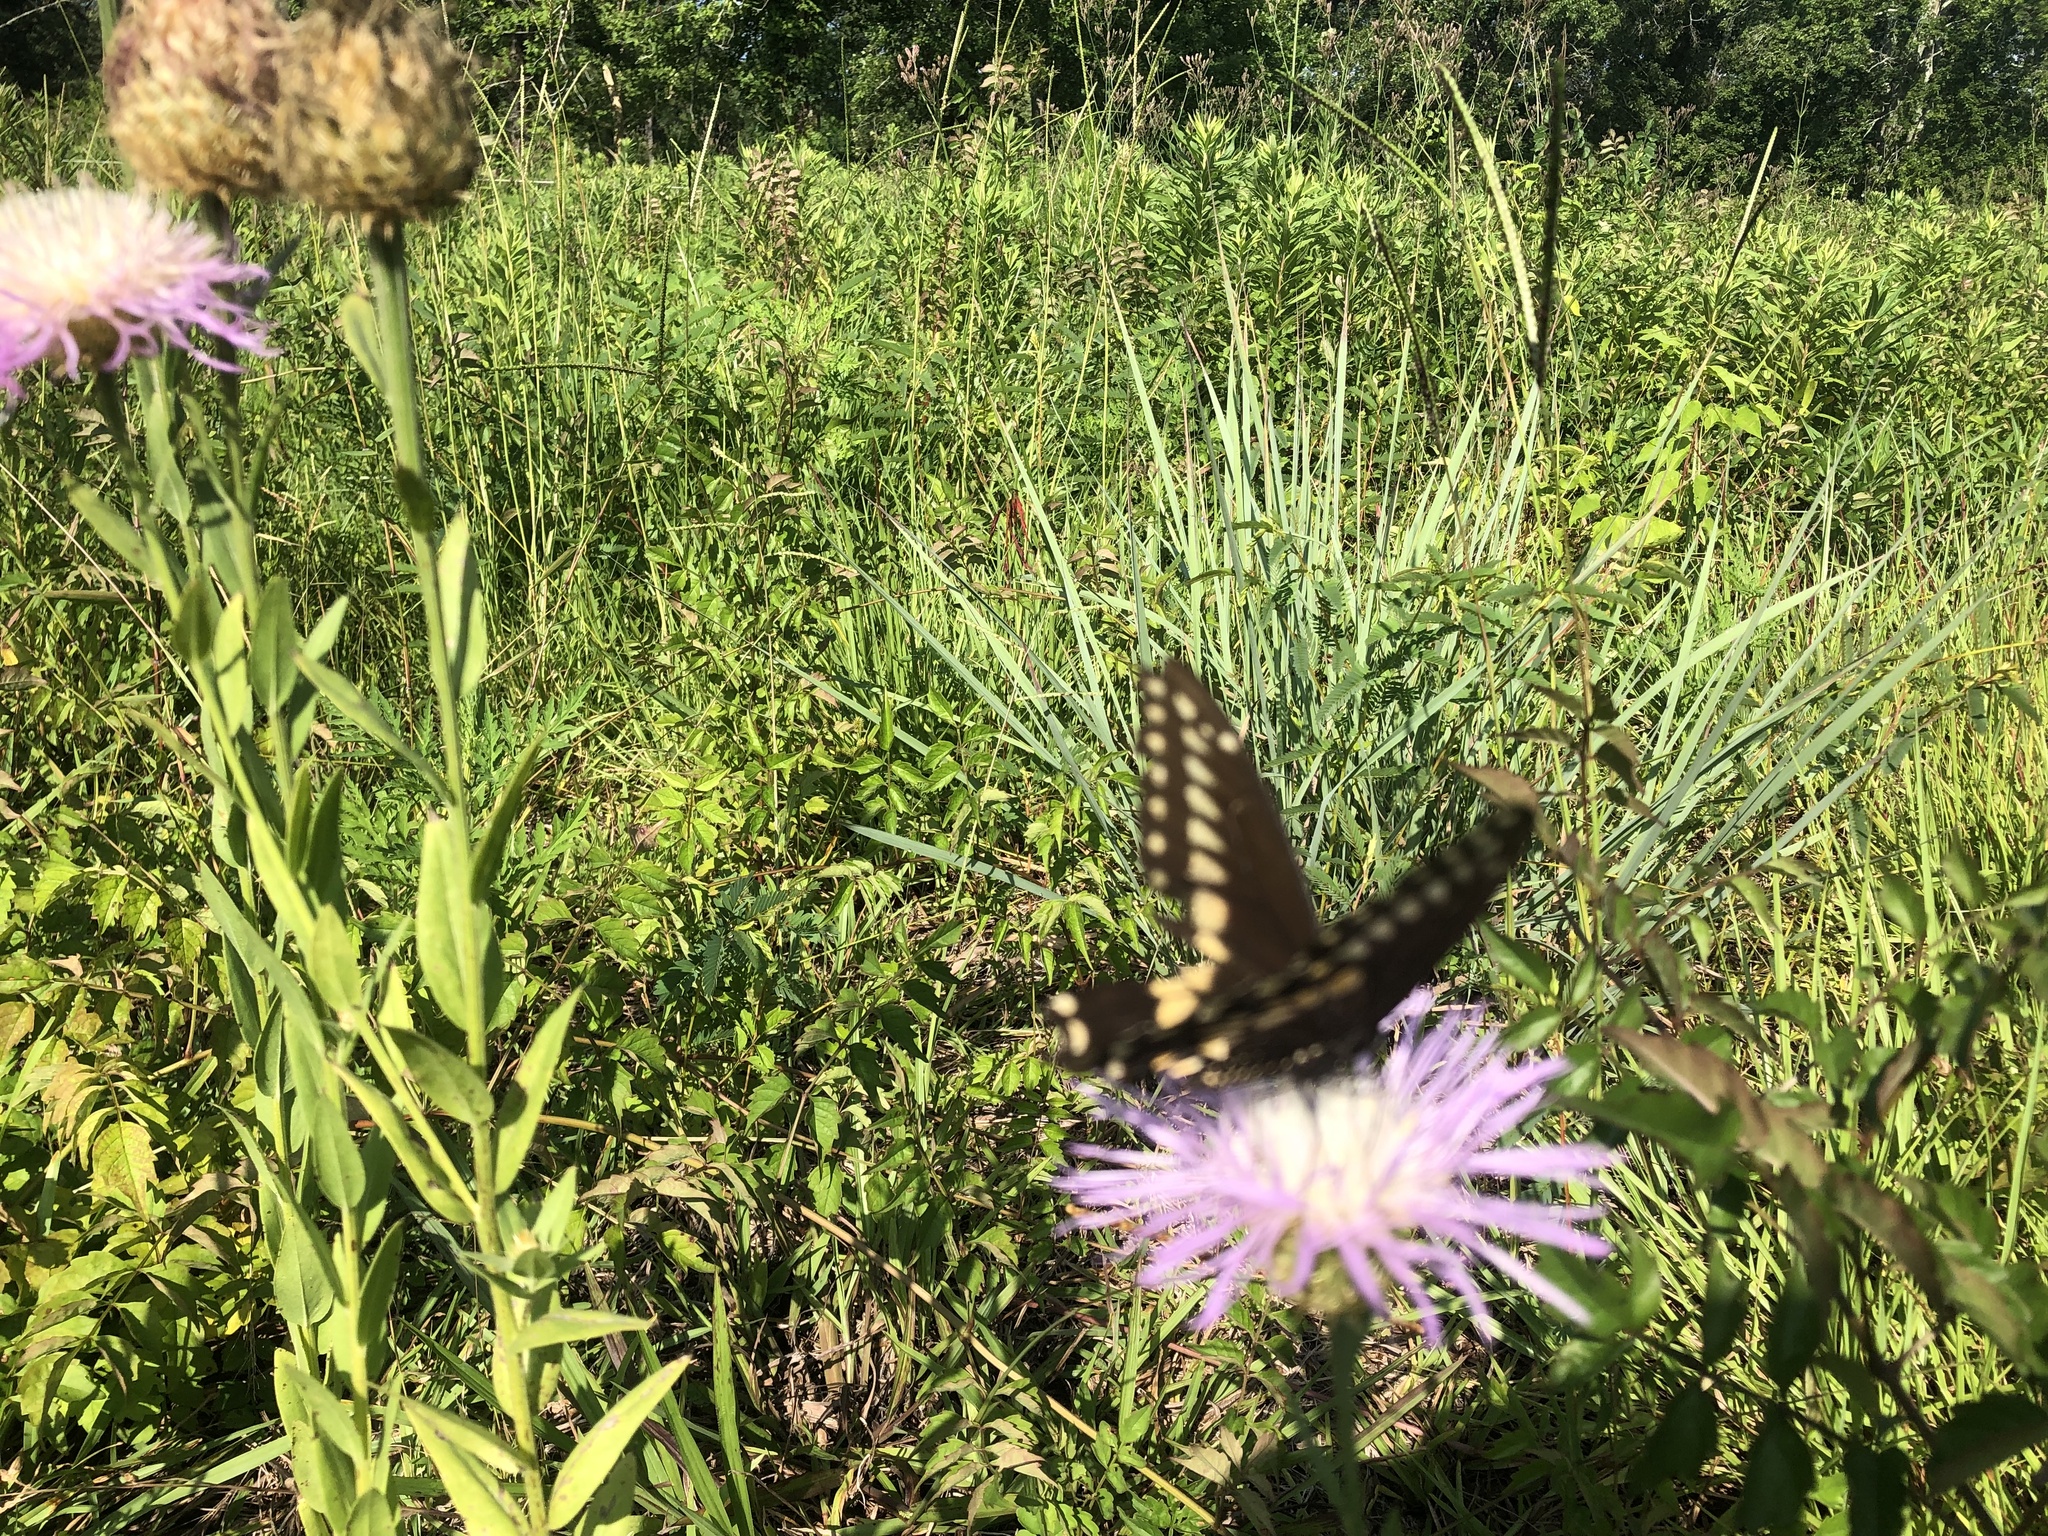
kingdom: Animalia
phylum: Arthropoda
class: Insecta
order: Lepidoptera
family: Papilionidae
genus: Papilio
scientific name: Papilio polyxenes
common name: Black swallowtail
